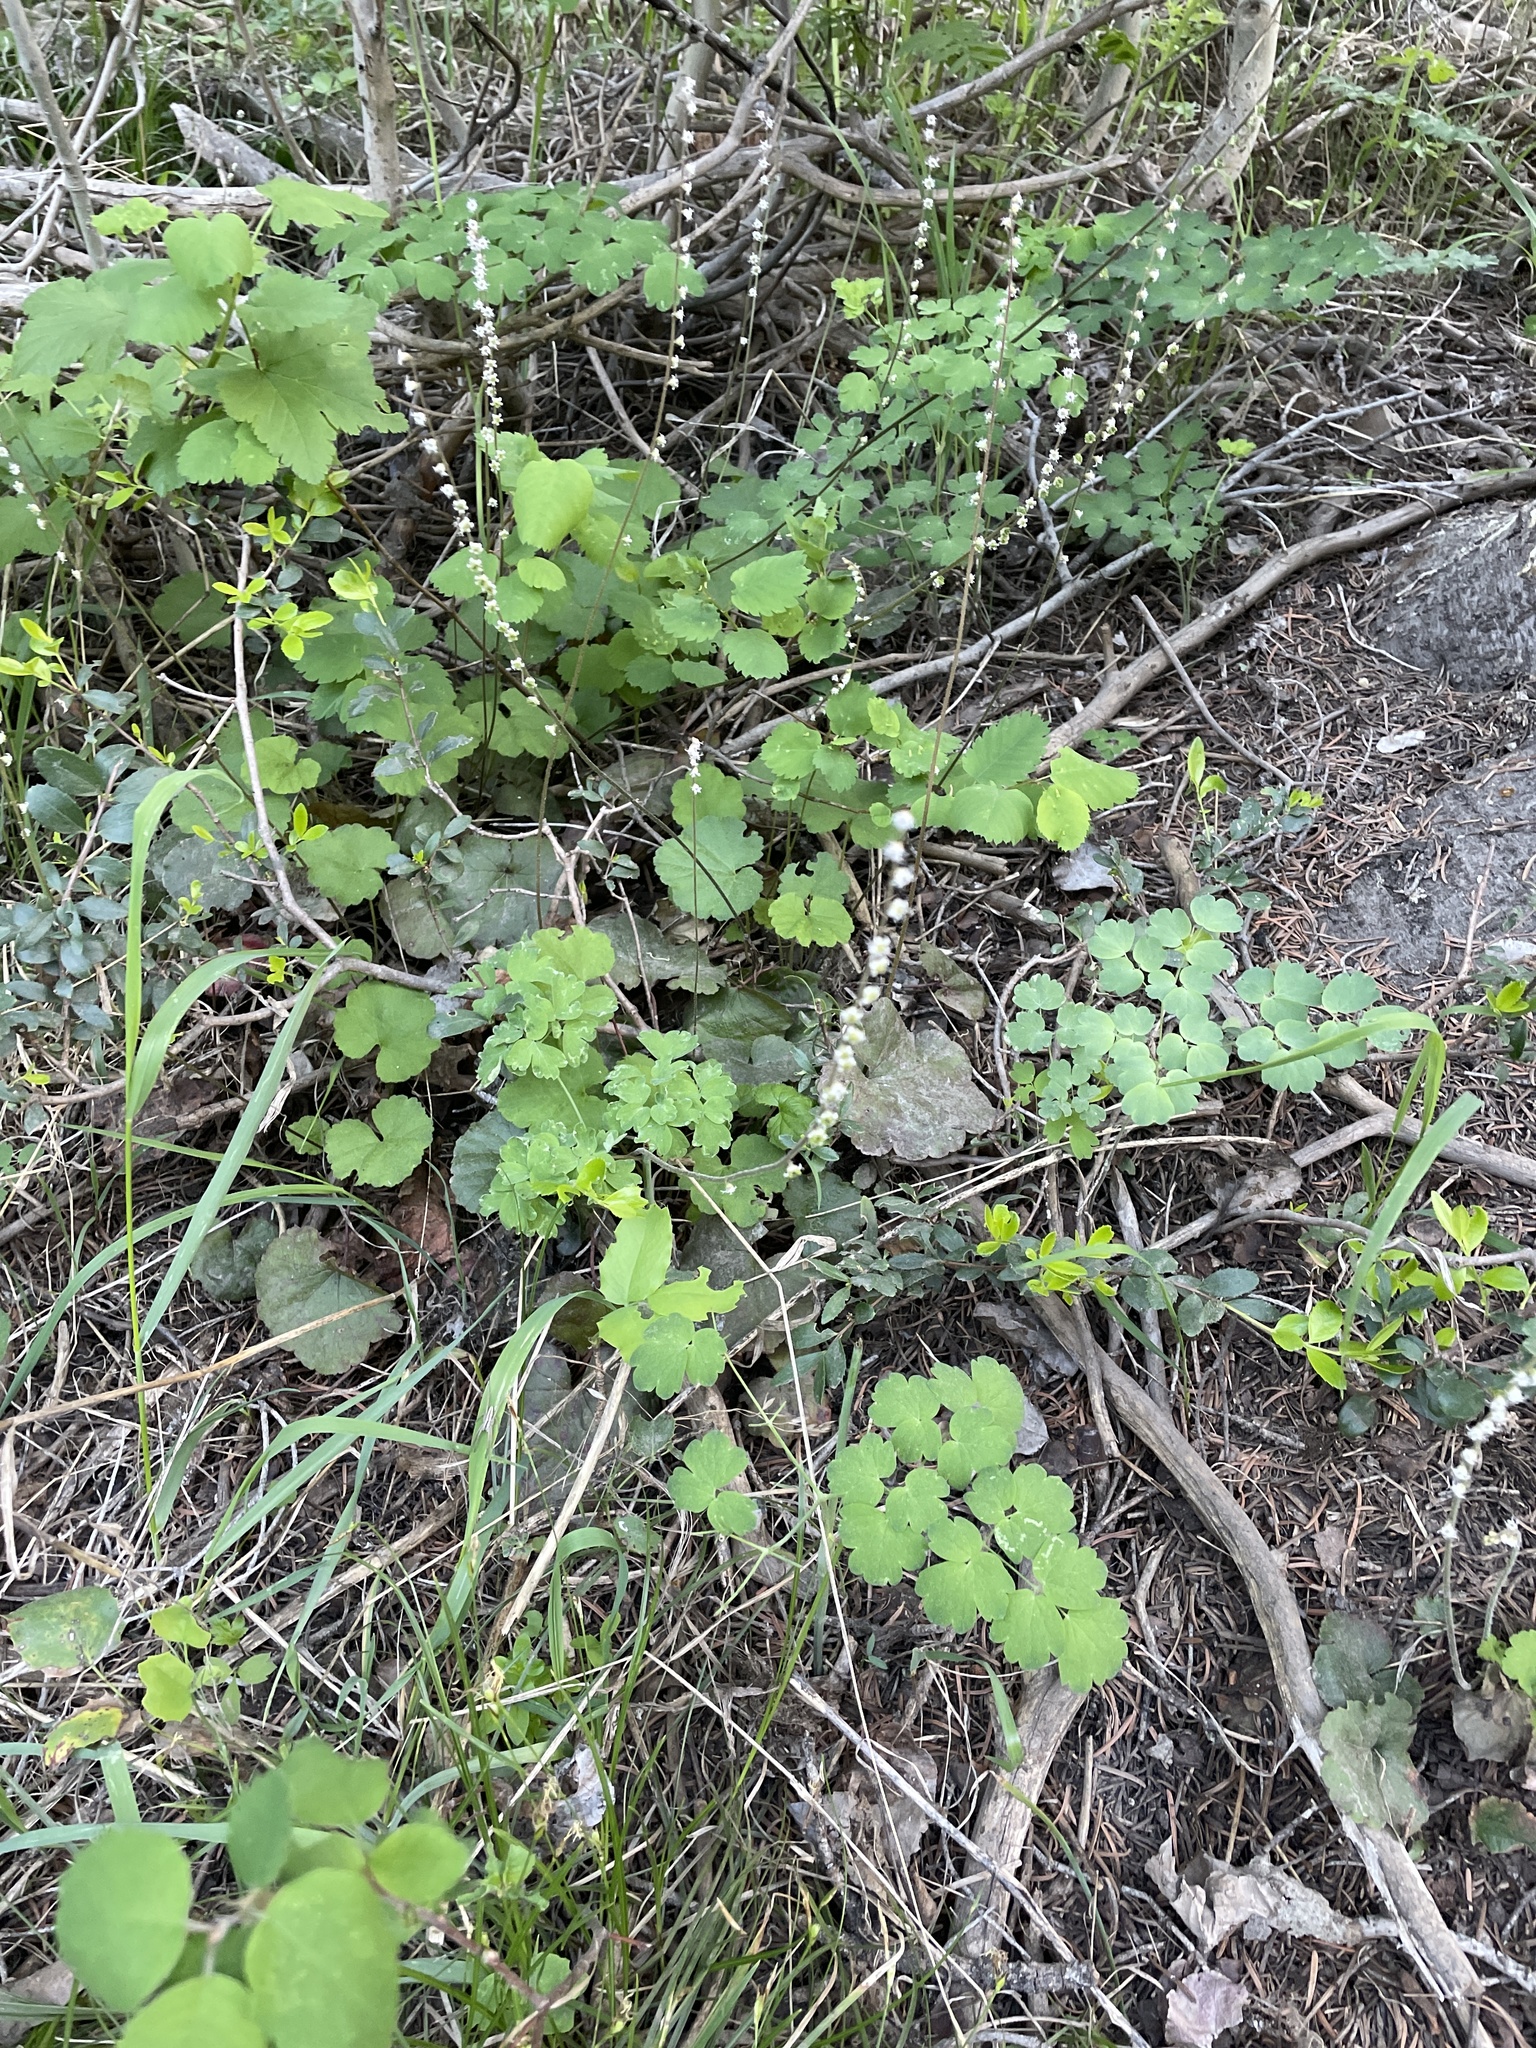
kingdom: Plantae
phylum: Tracheophyta
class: Magnoliopsida
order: Saxifragales
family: Saxifragaceae
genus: Ozomelis
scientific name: Ozomelis stauropetala
